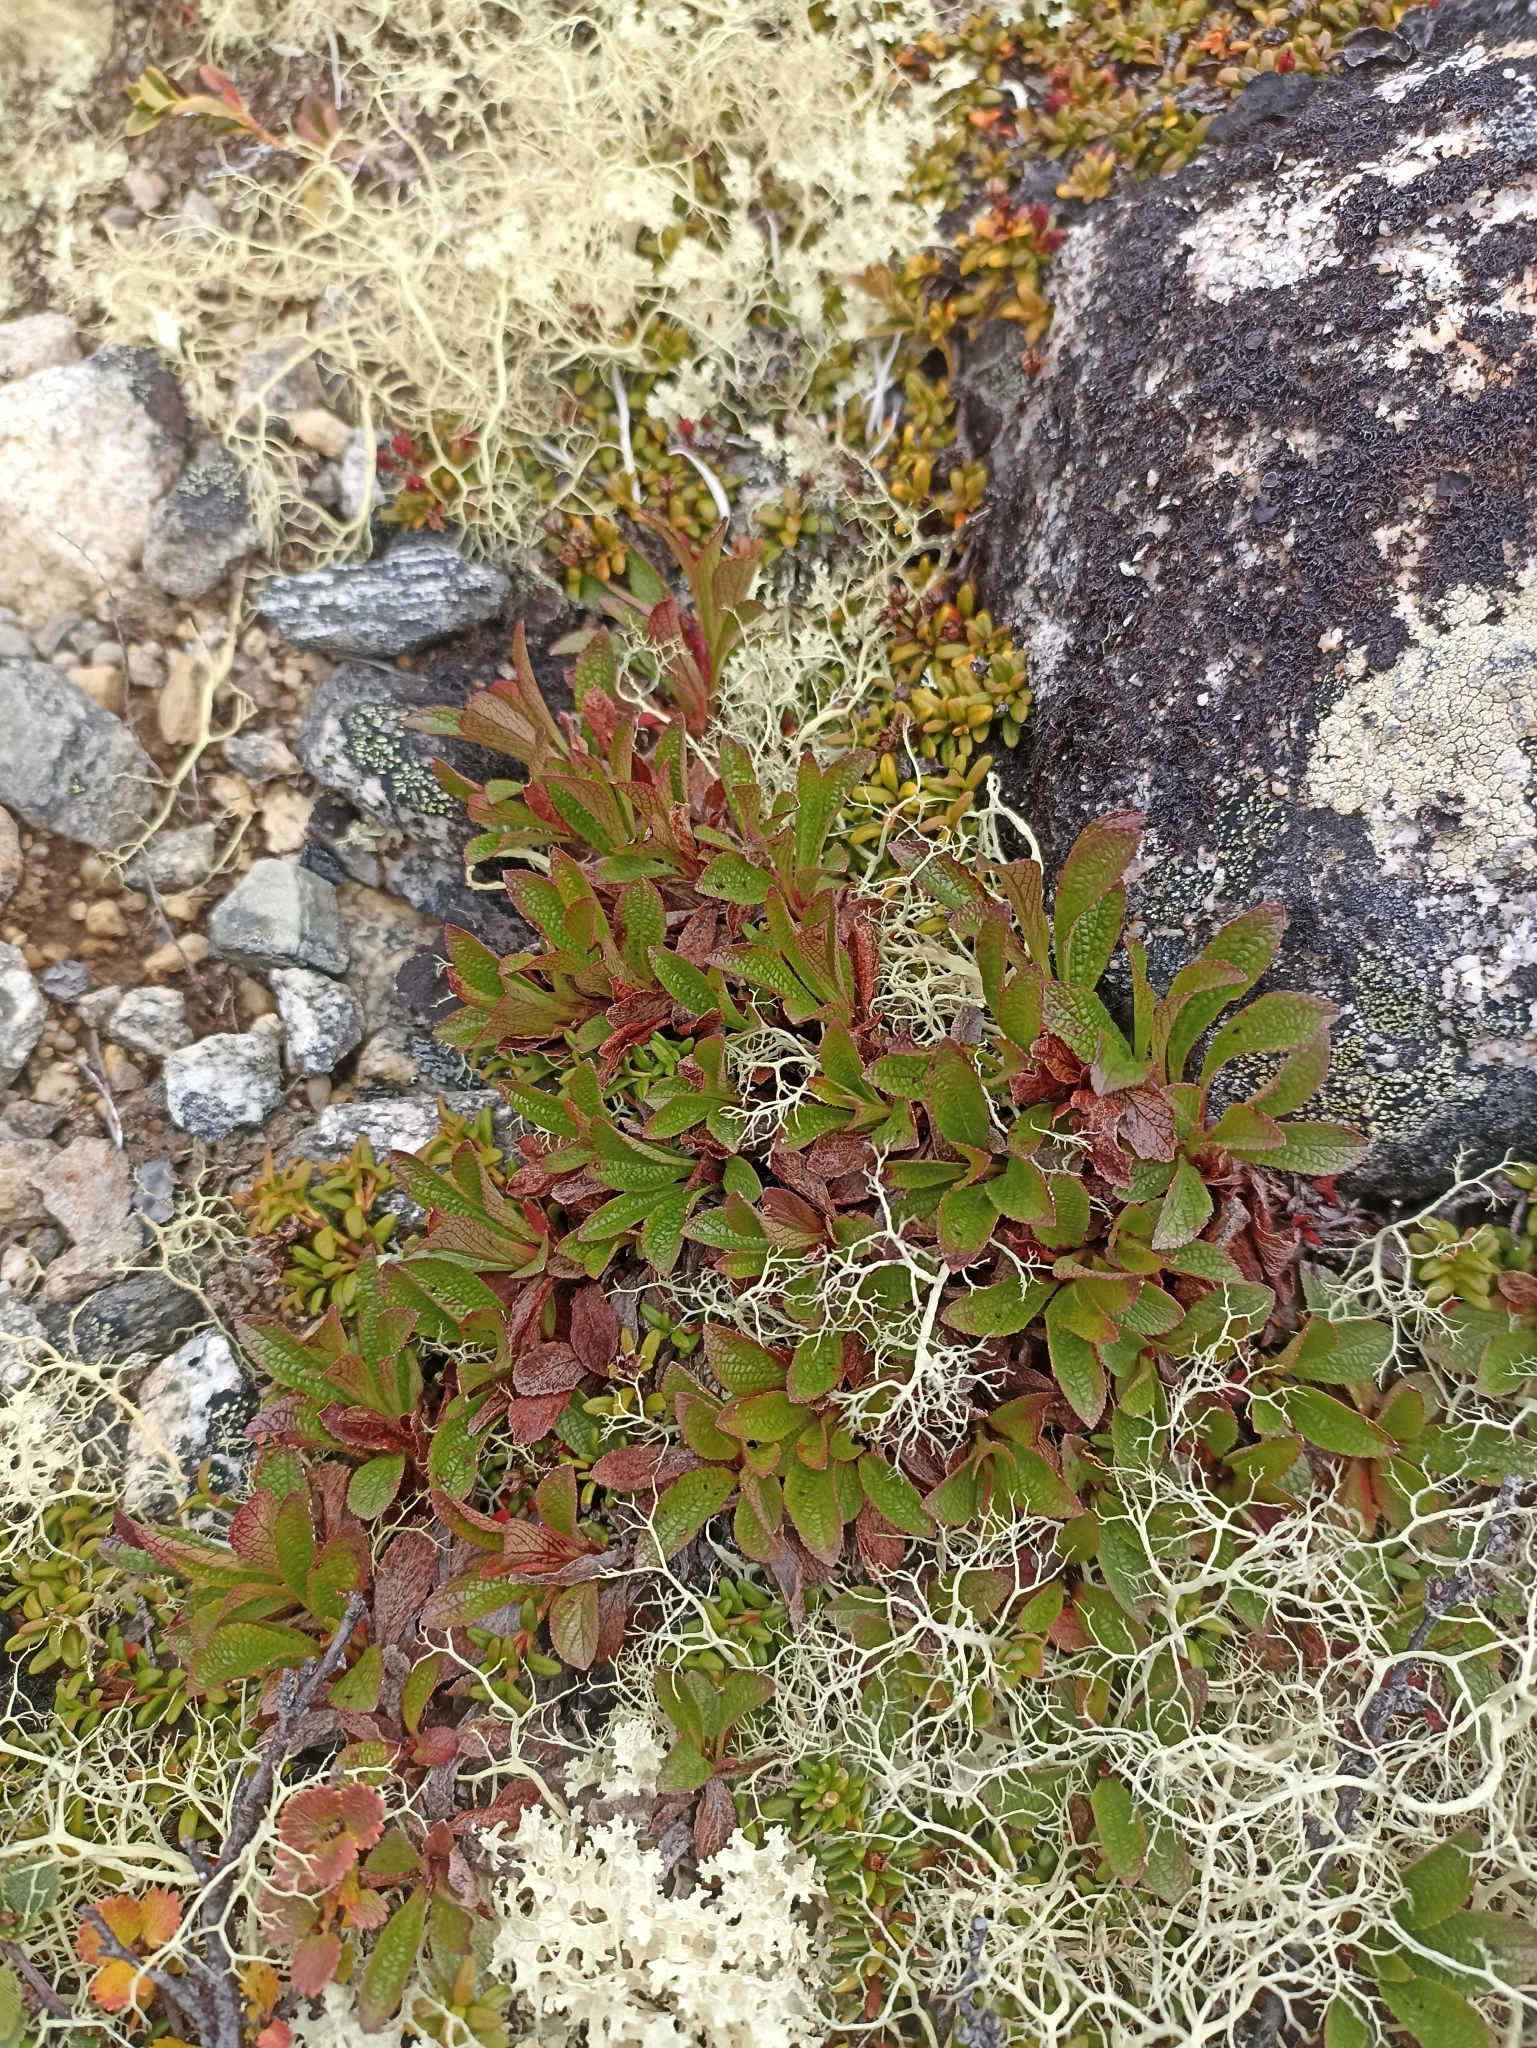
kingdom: Plantae
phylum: Tracheophyta
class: Magnoliopsida
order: Ericales
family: Ericaceae
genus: Arctostaphylos
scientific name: Arctostaphylos alpinus
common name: Alpine bearberry
